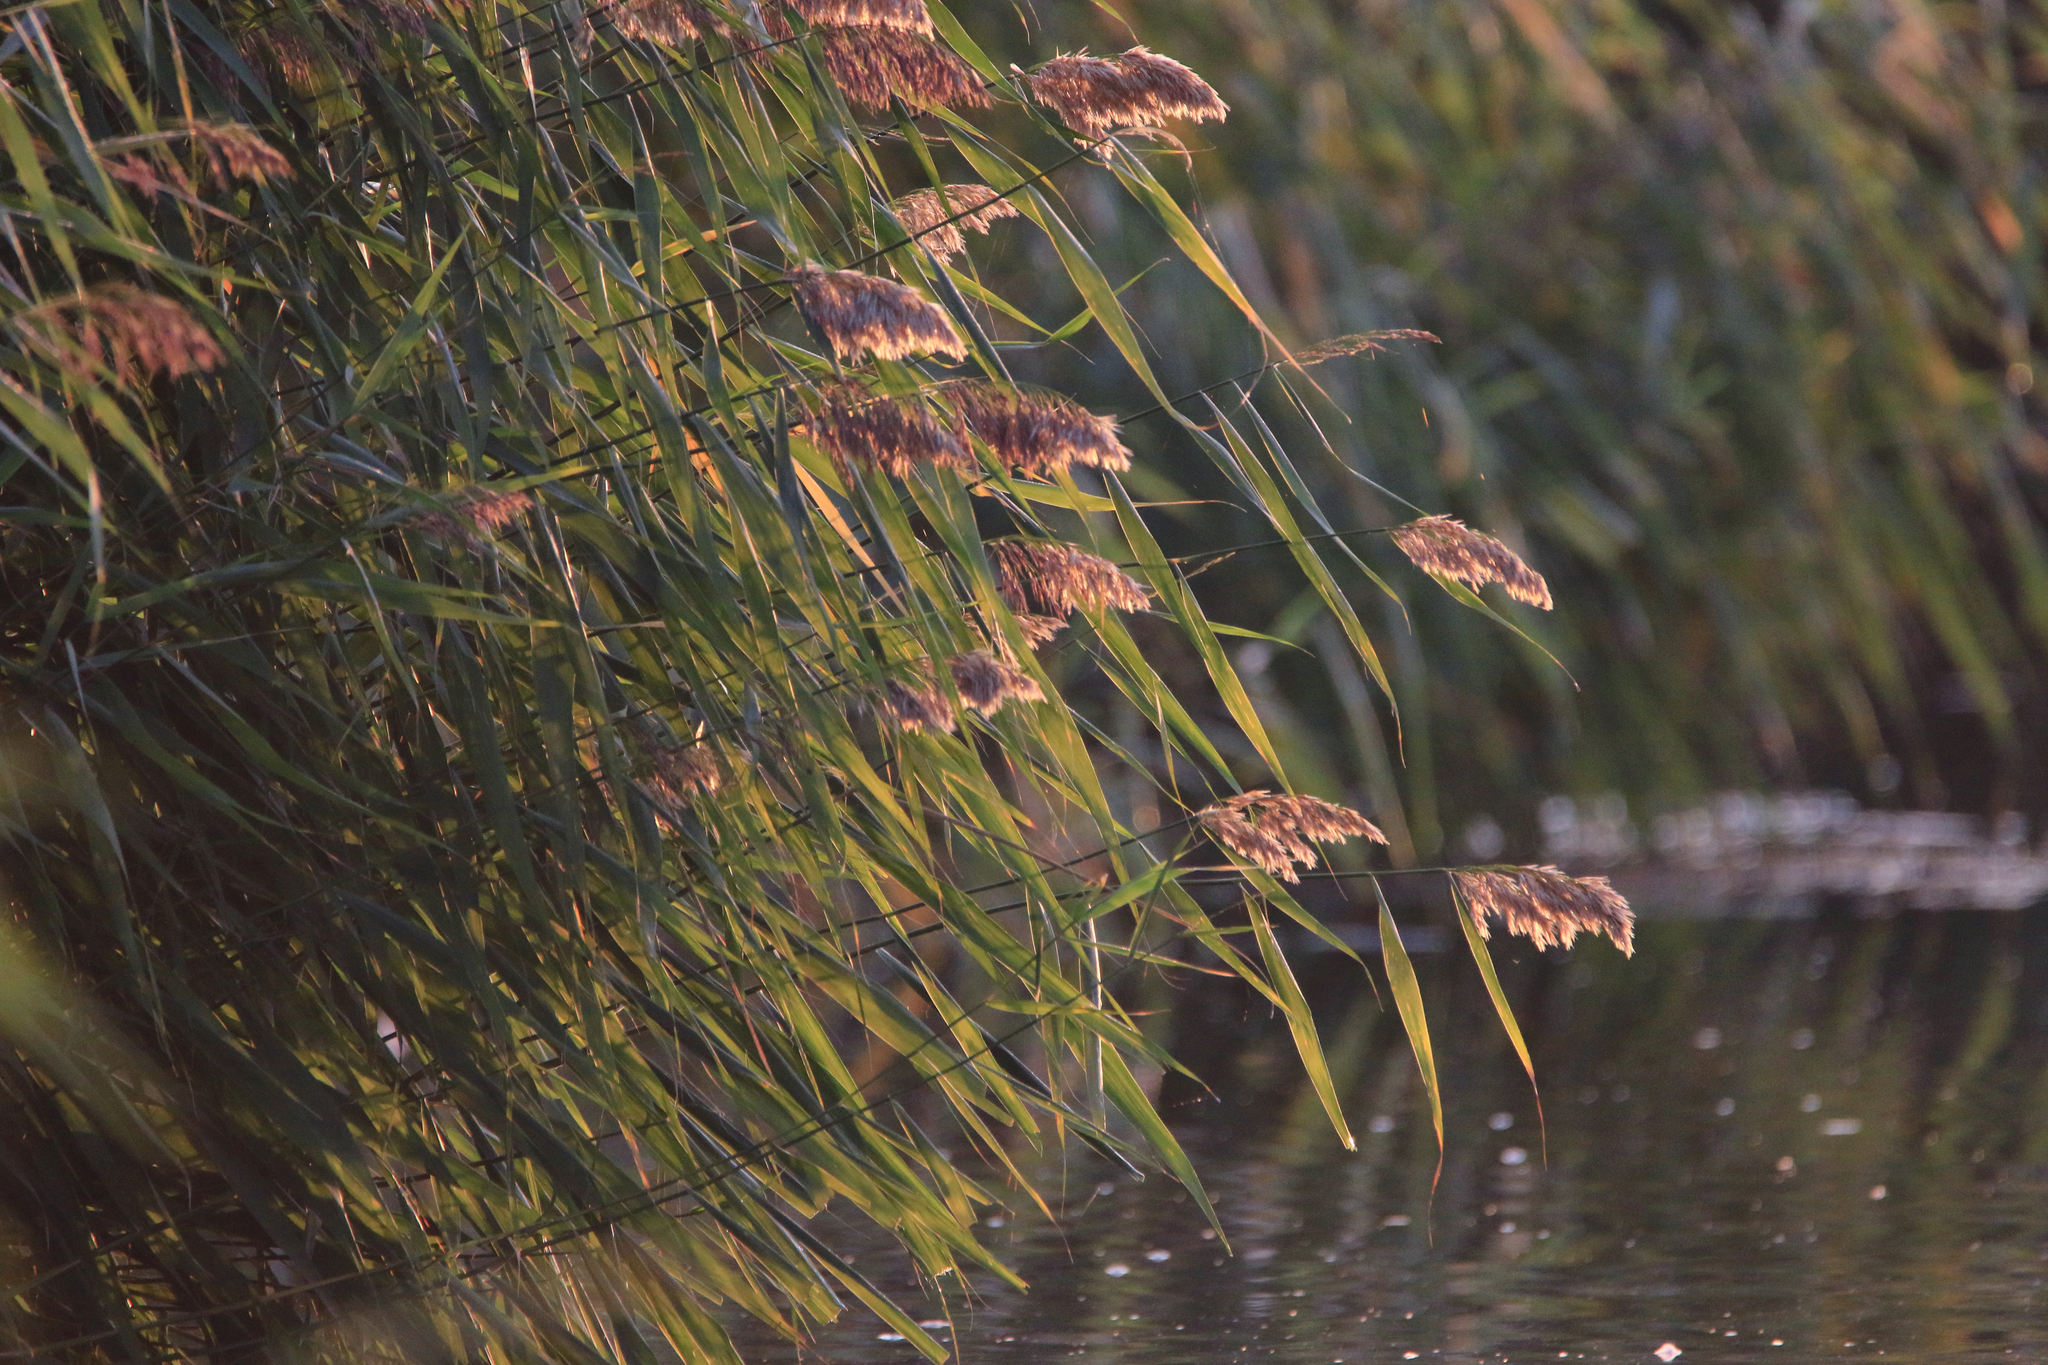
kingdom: Plantae
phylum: Tracheophyta
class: Liliopsida
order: Poales
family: Poaceae
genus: Phragmites
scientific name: Phragmites australis
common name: Common reed
